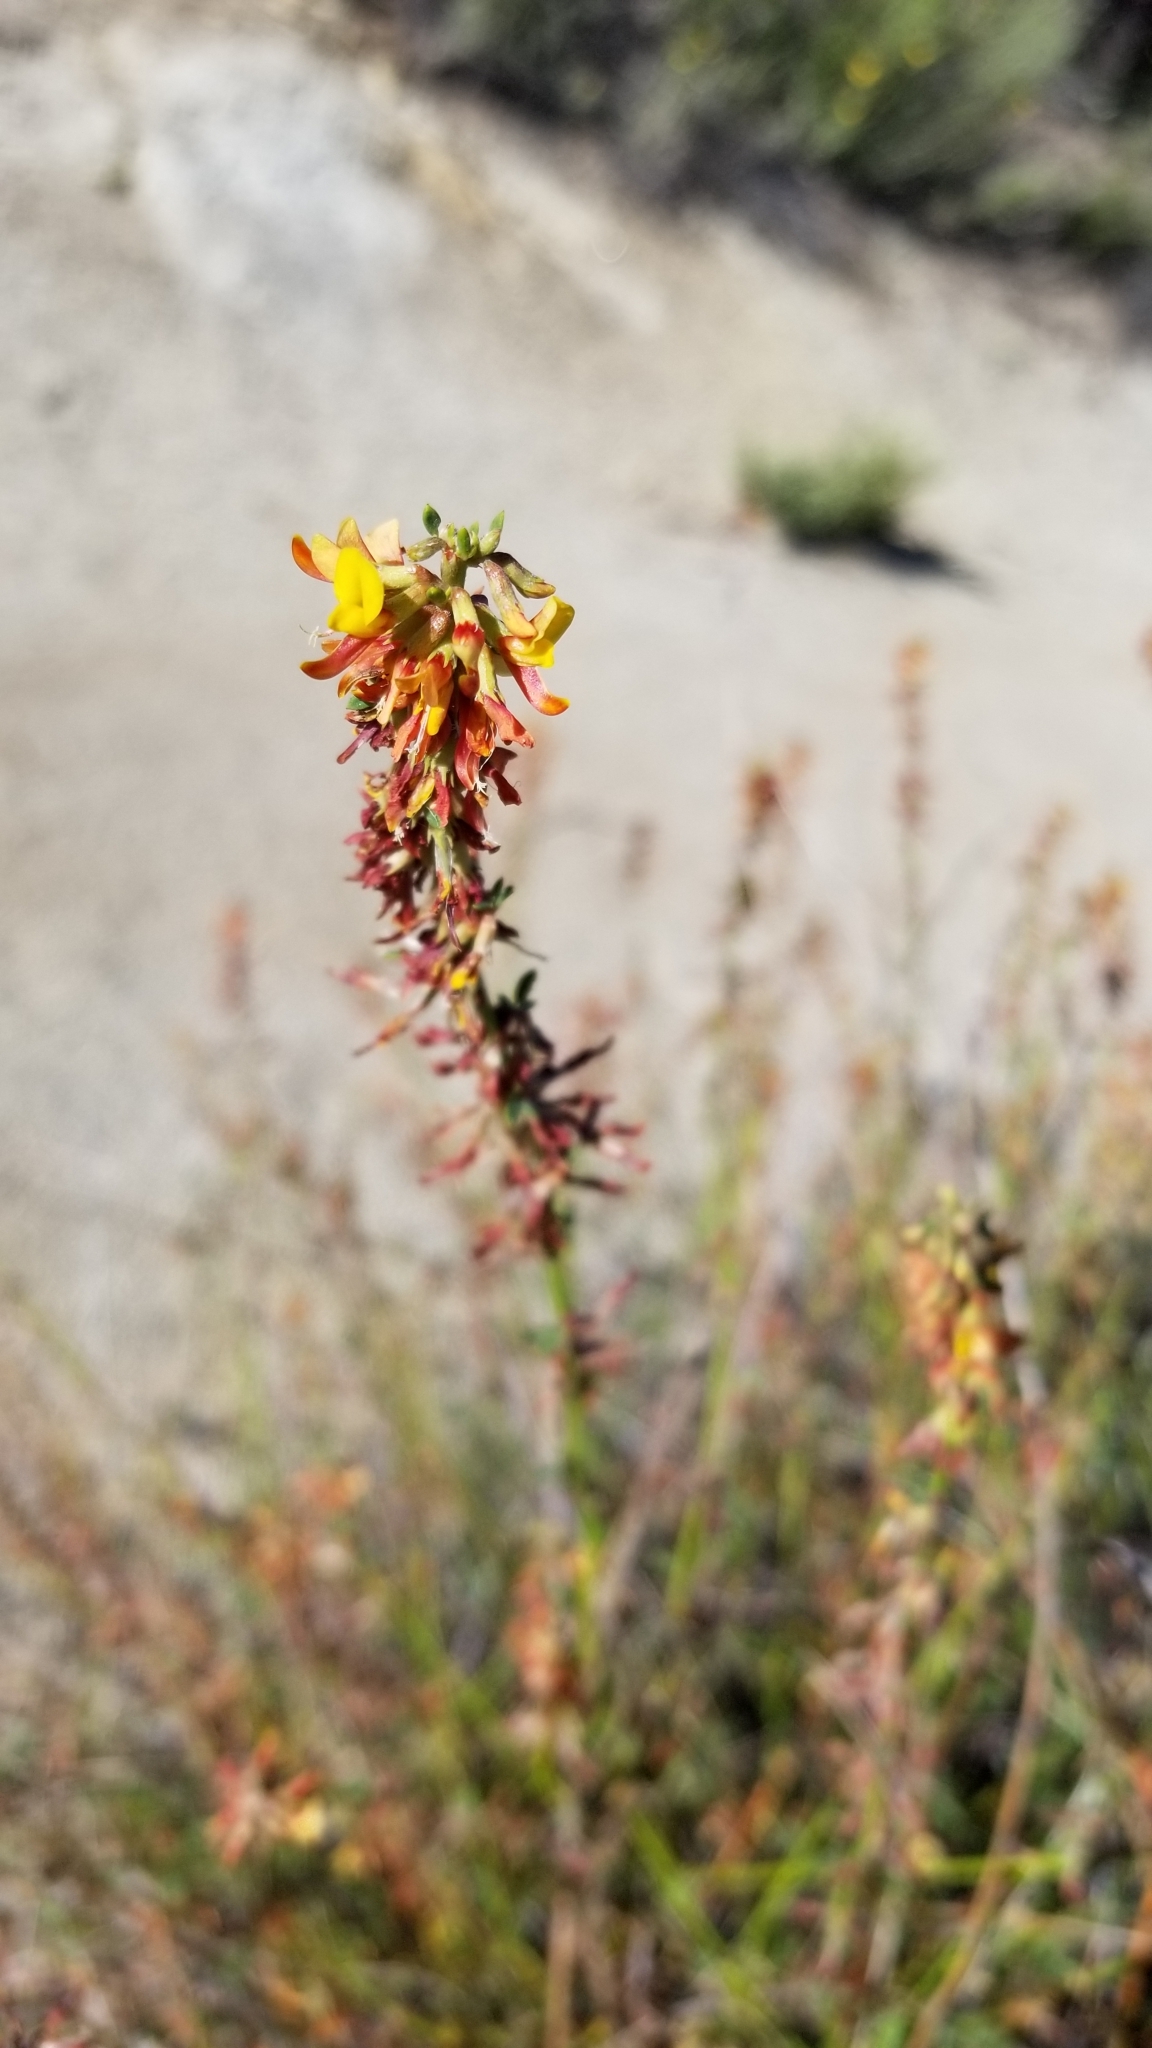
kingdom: Plantae
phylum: Tracheophyta
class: Magnoliopsida
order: Fabales
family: Fabaceae
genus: Acmispon
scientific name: Acmispon glaber
